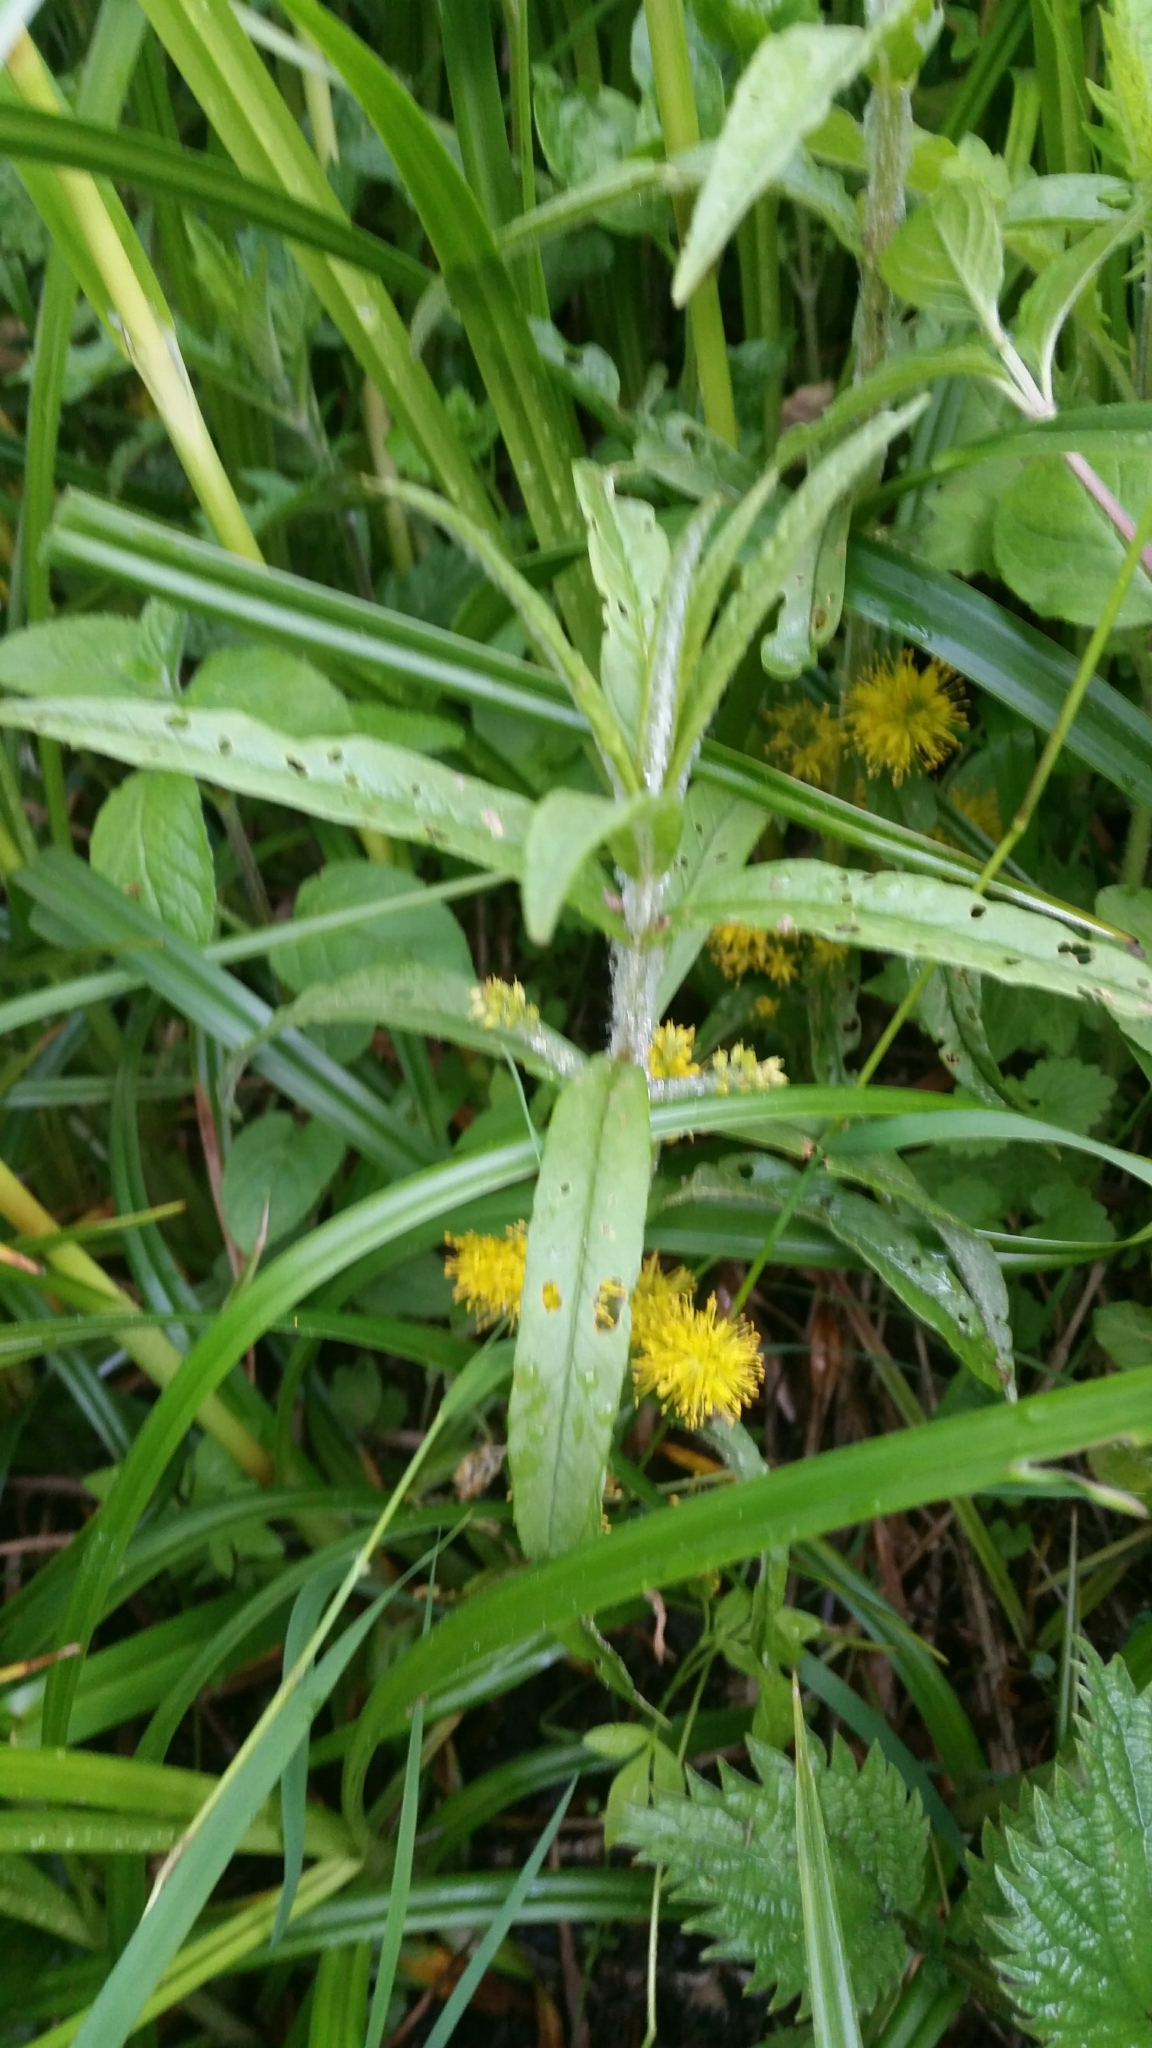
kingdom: Plantae
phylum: Tracheophyta
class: Magnoliopsida
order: Ericales
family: Primulaceae
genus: Lysimachia
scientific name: Lysimachia thyrsiflora
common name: Tufted loosestrife
